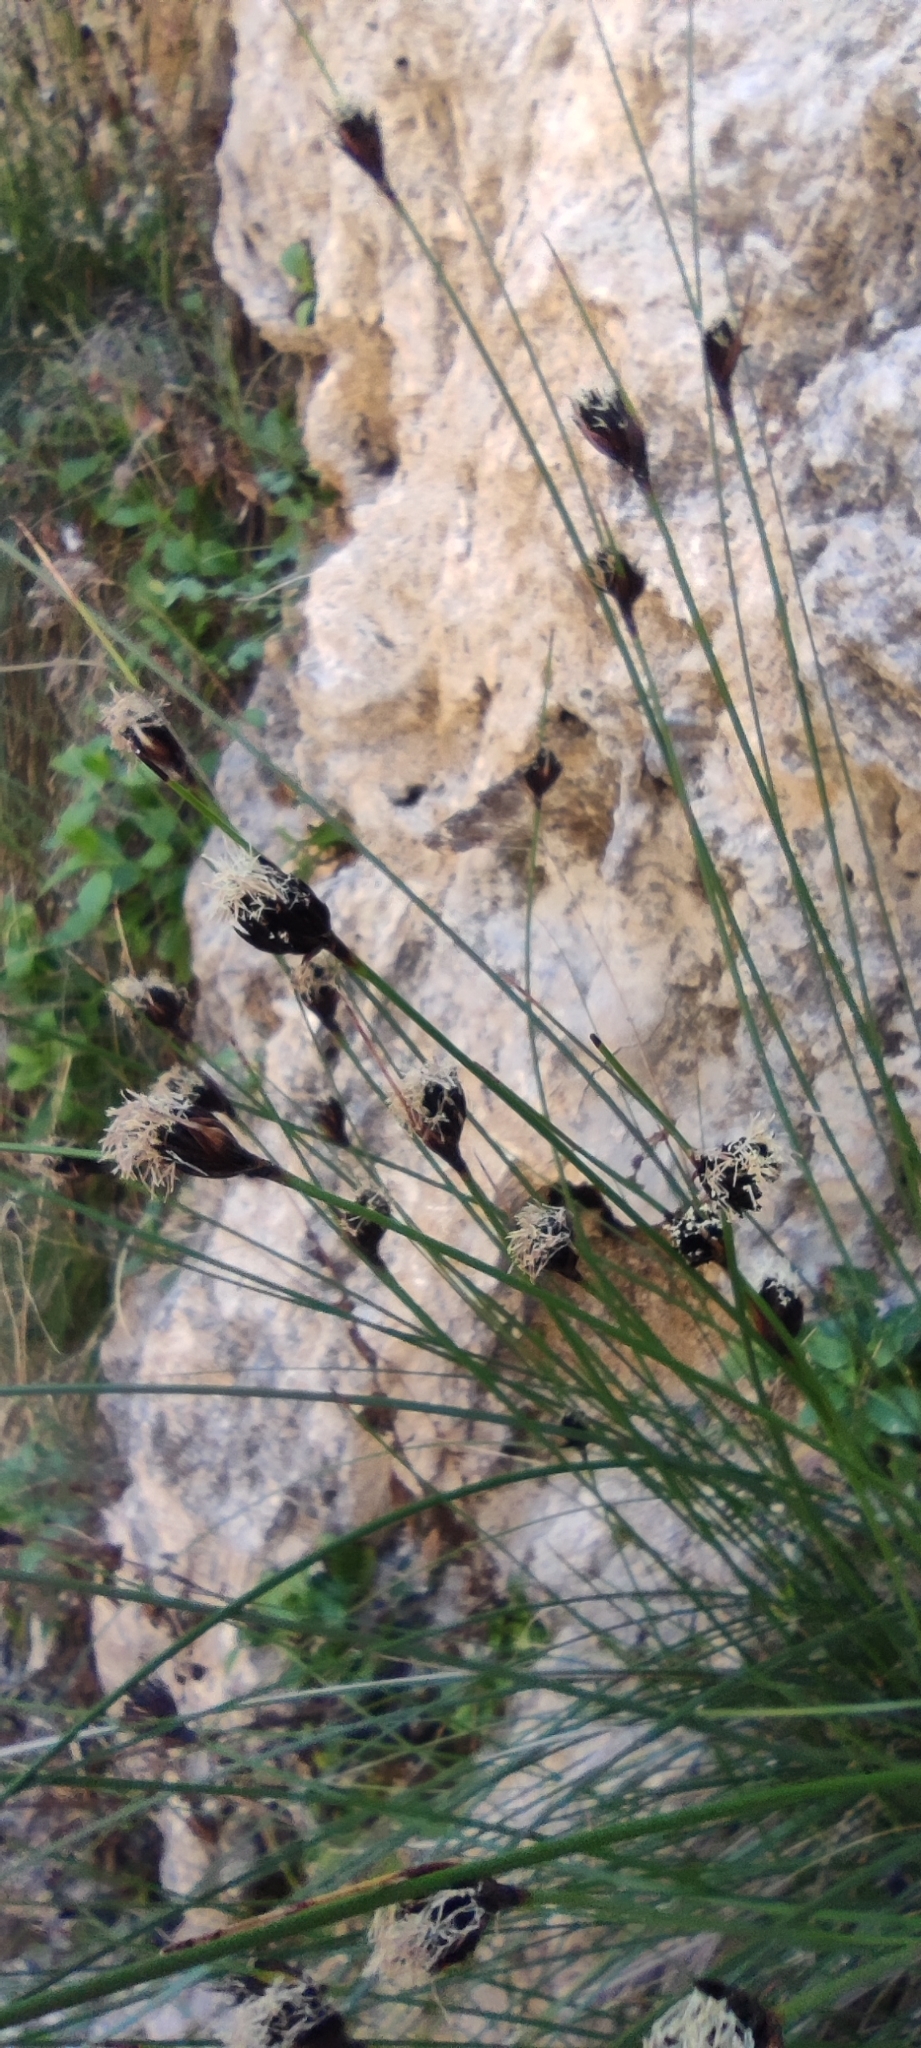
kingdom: Plantae
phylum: Tracheophyta
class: Liliopsida
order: Poales
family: Cyperaceae
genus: Schoenus
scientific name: Schoenus nigricans
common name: Black bog-rush
